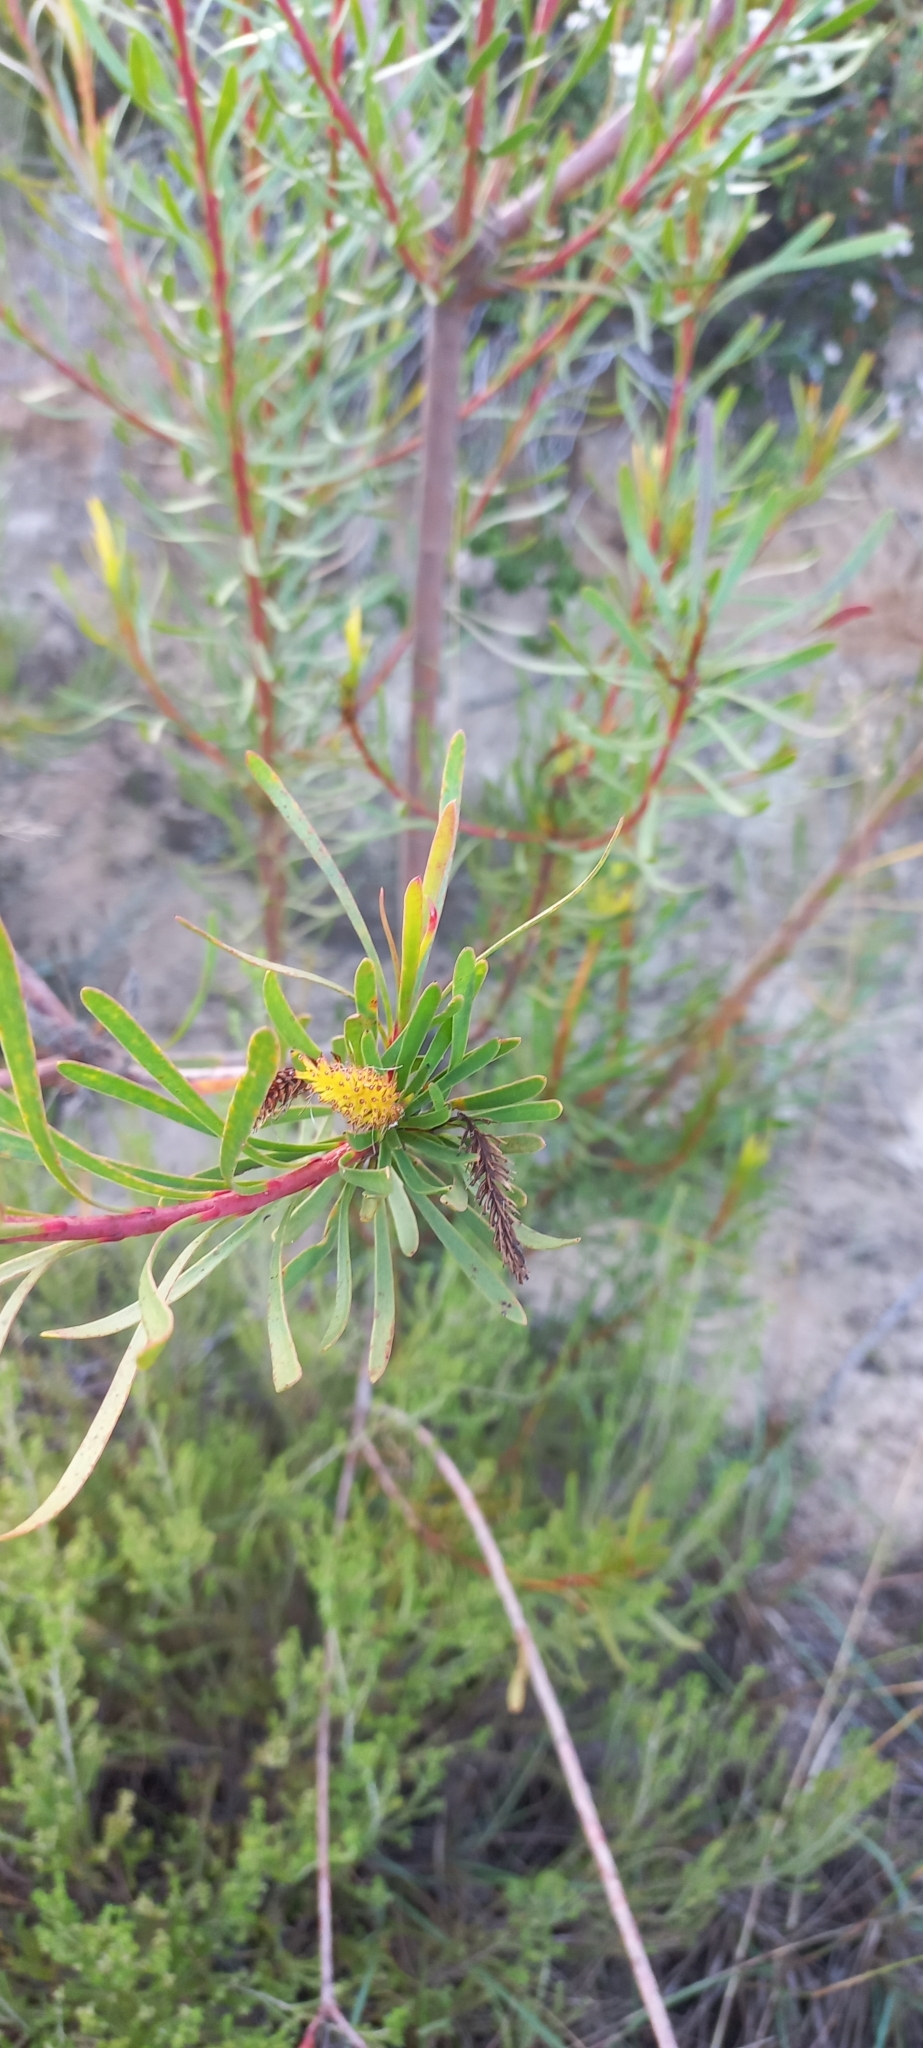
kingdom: Plantae
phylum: Tracheophyta
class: Magnoliopsida
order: Proteales
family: Proteaceae
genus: Aulax
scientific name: Aulax
